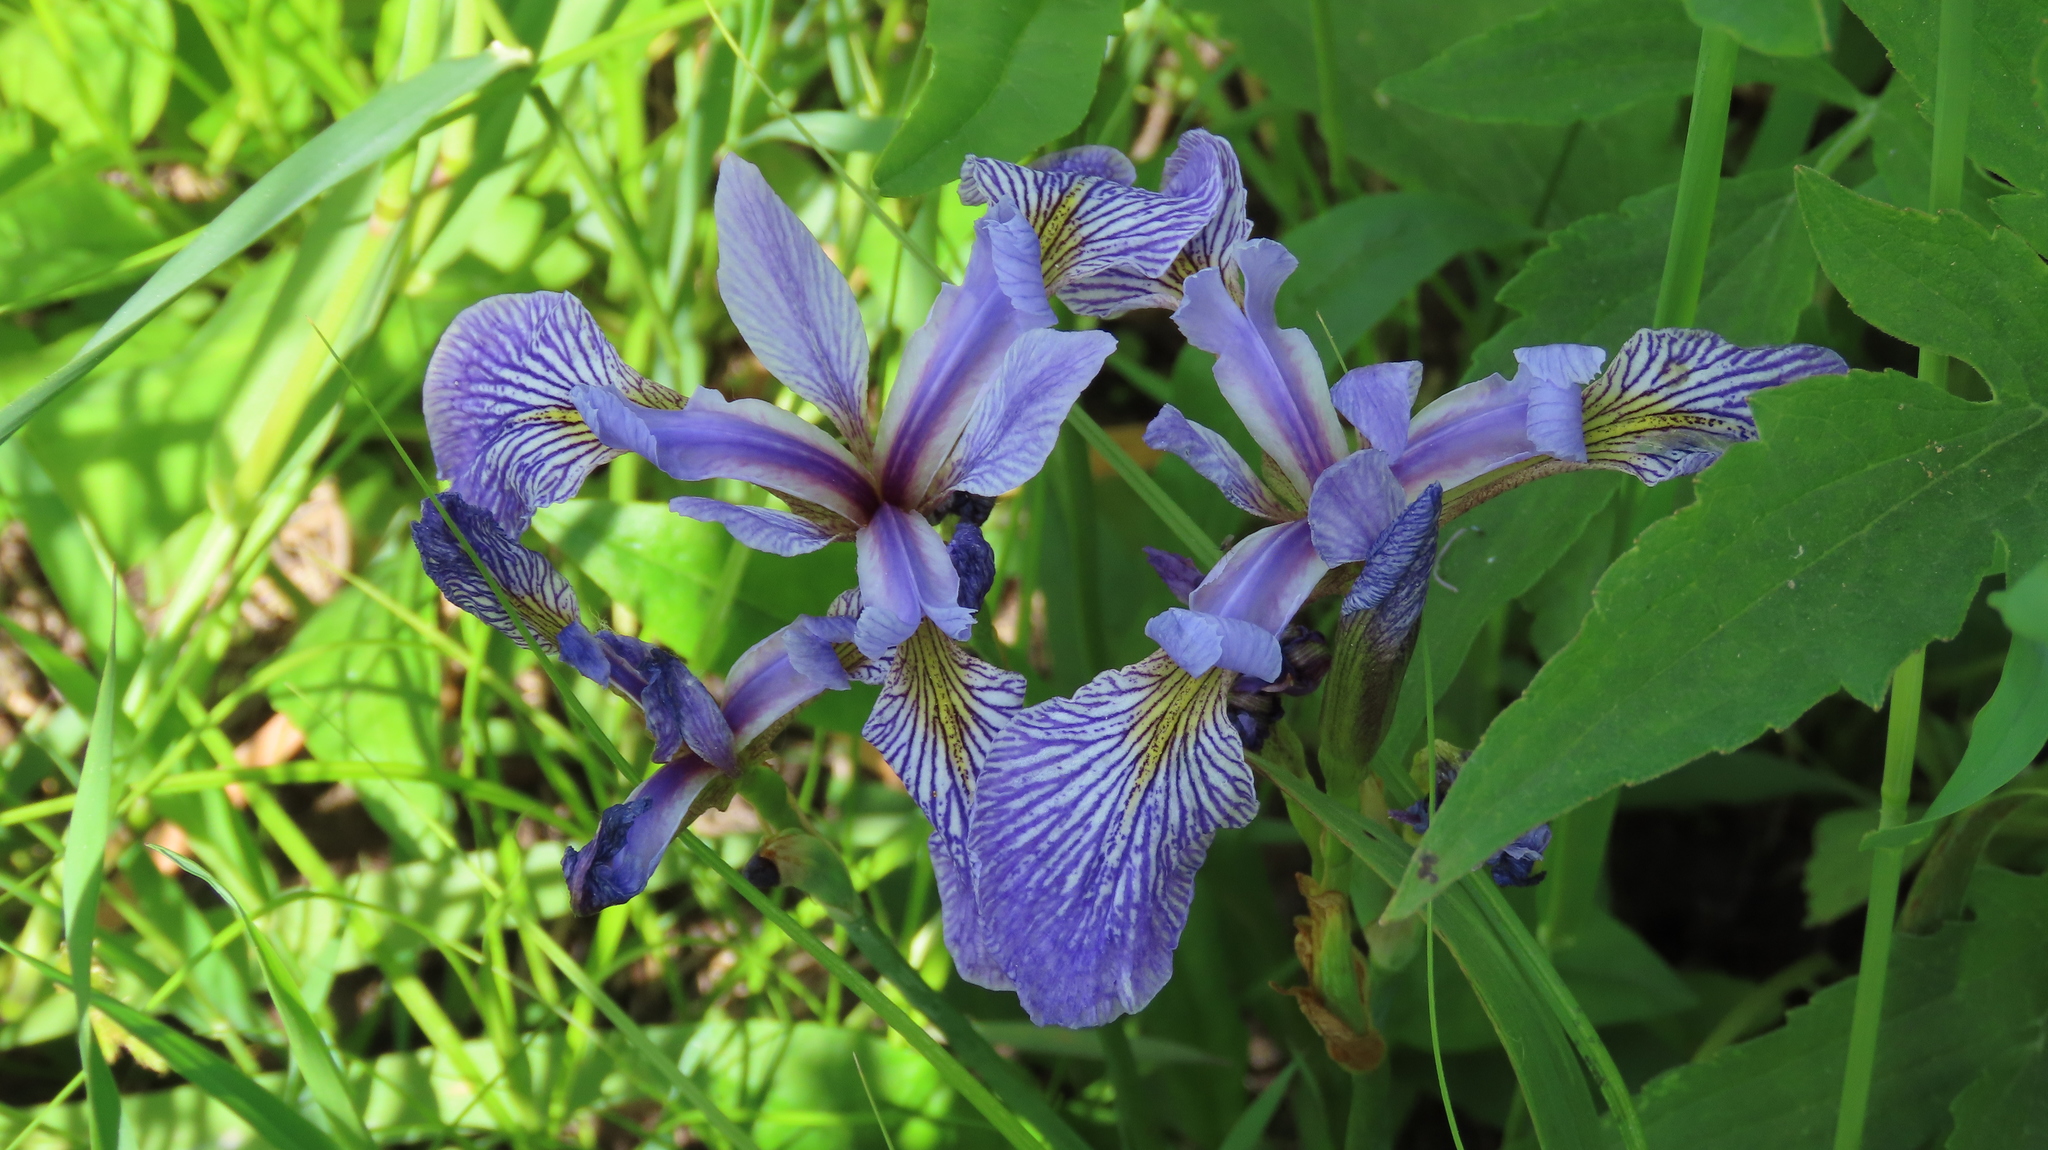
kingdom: Plantae
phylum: Tracheophyta
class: Liliopsida
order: Asparagales
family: Iridaceae
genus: Iris
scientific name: Iris versicolor
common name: Purple iris
